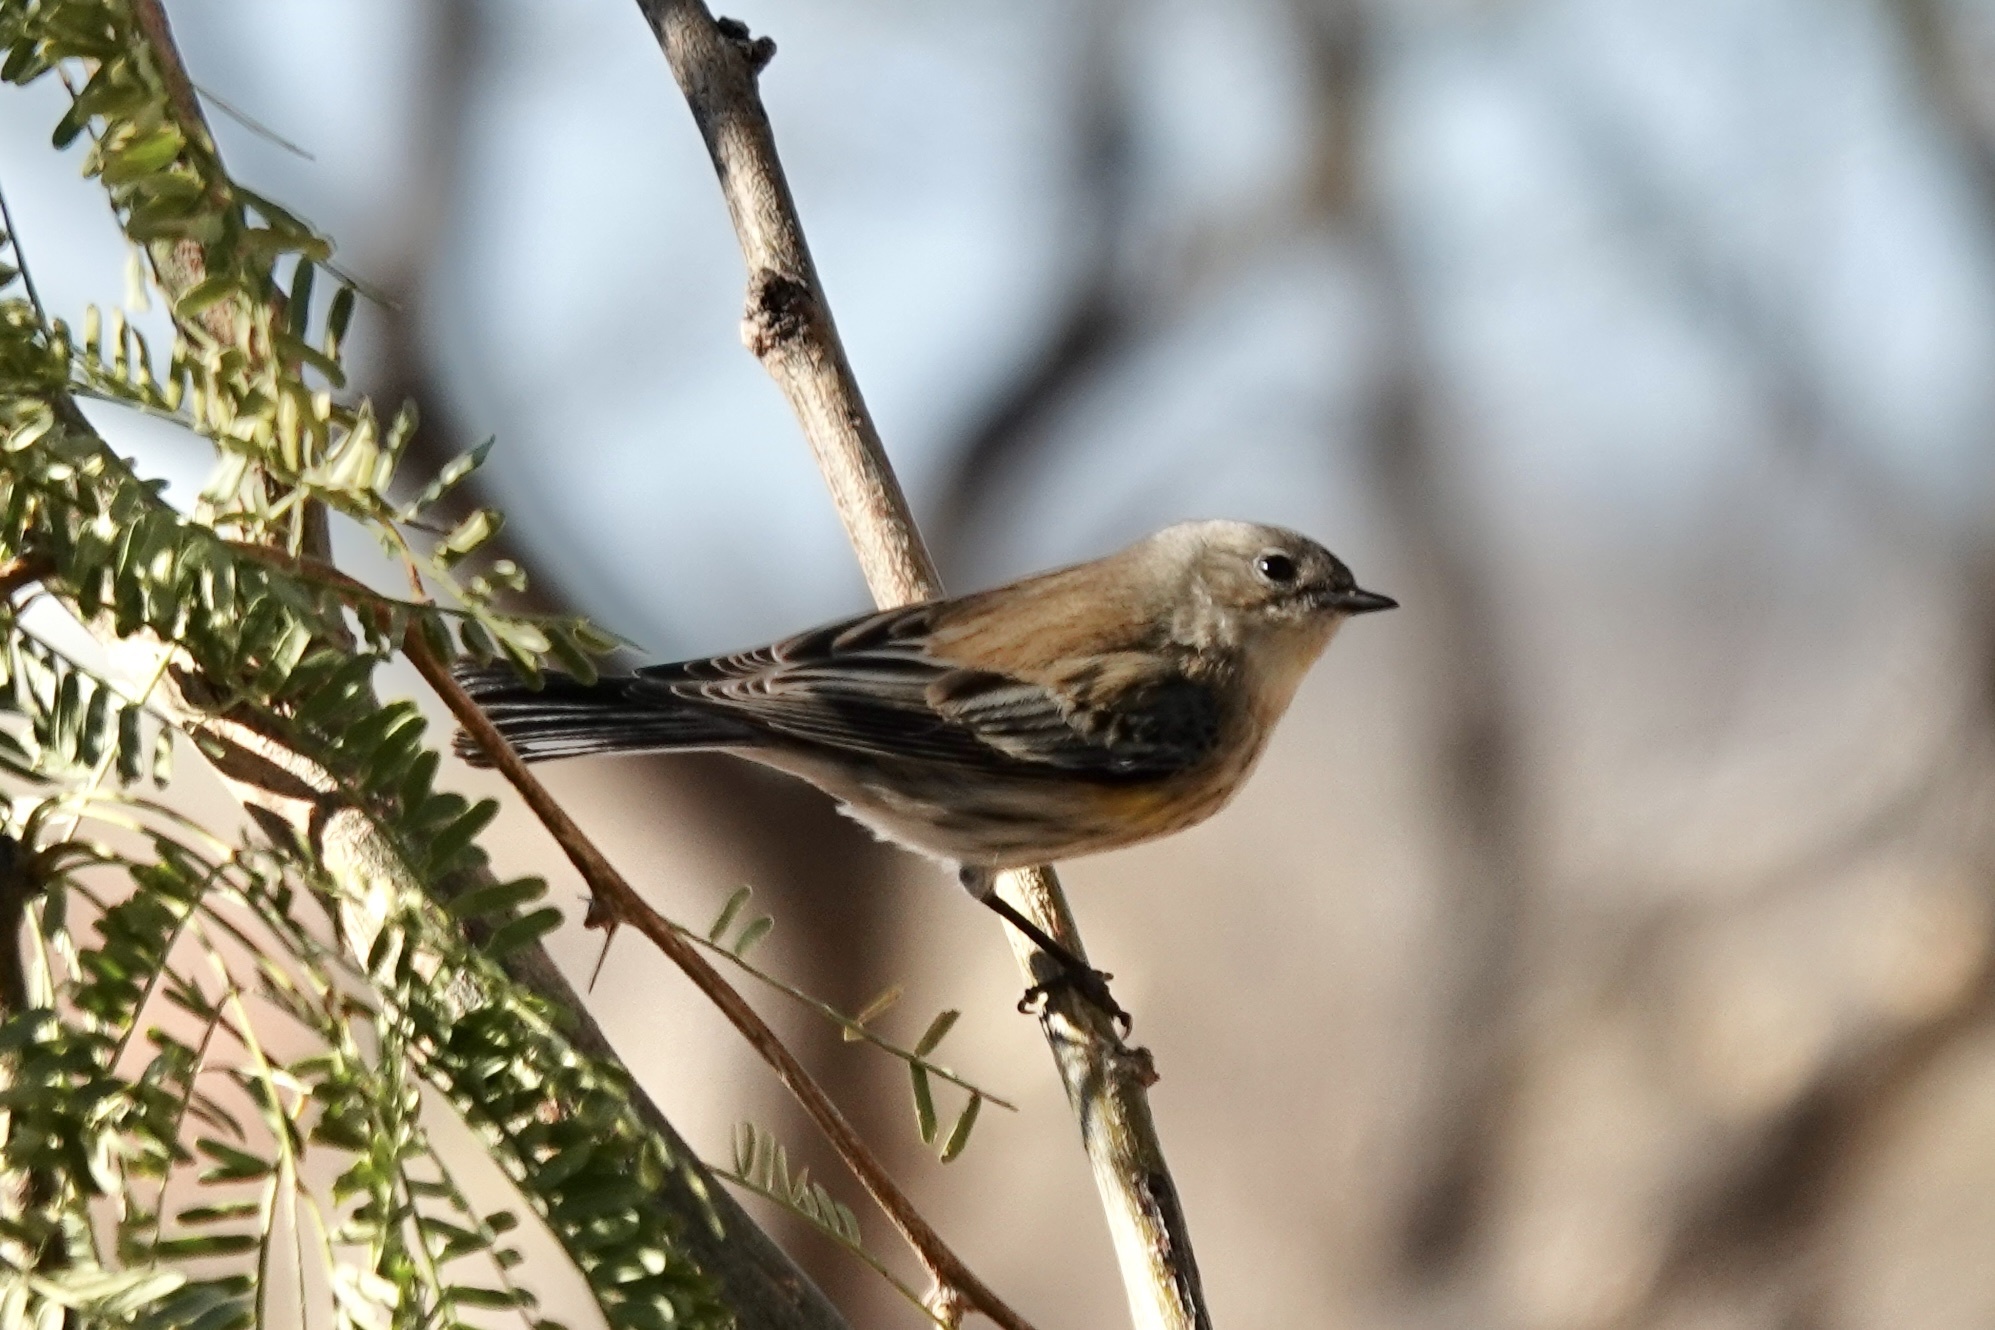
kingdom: Animalia
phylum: Chordata
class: Aves
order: Passeriformes
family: Parulidae
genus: Setophaga
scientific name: Setophaga coronata
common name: Myrtle warbler
